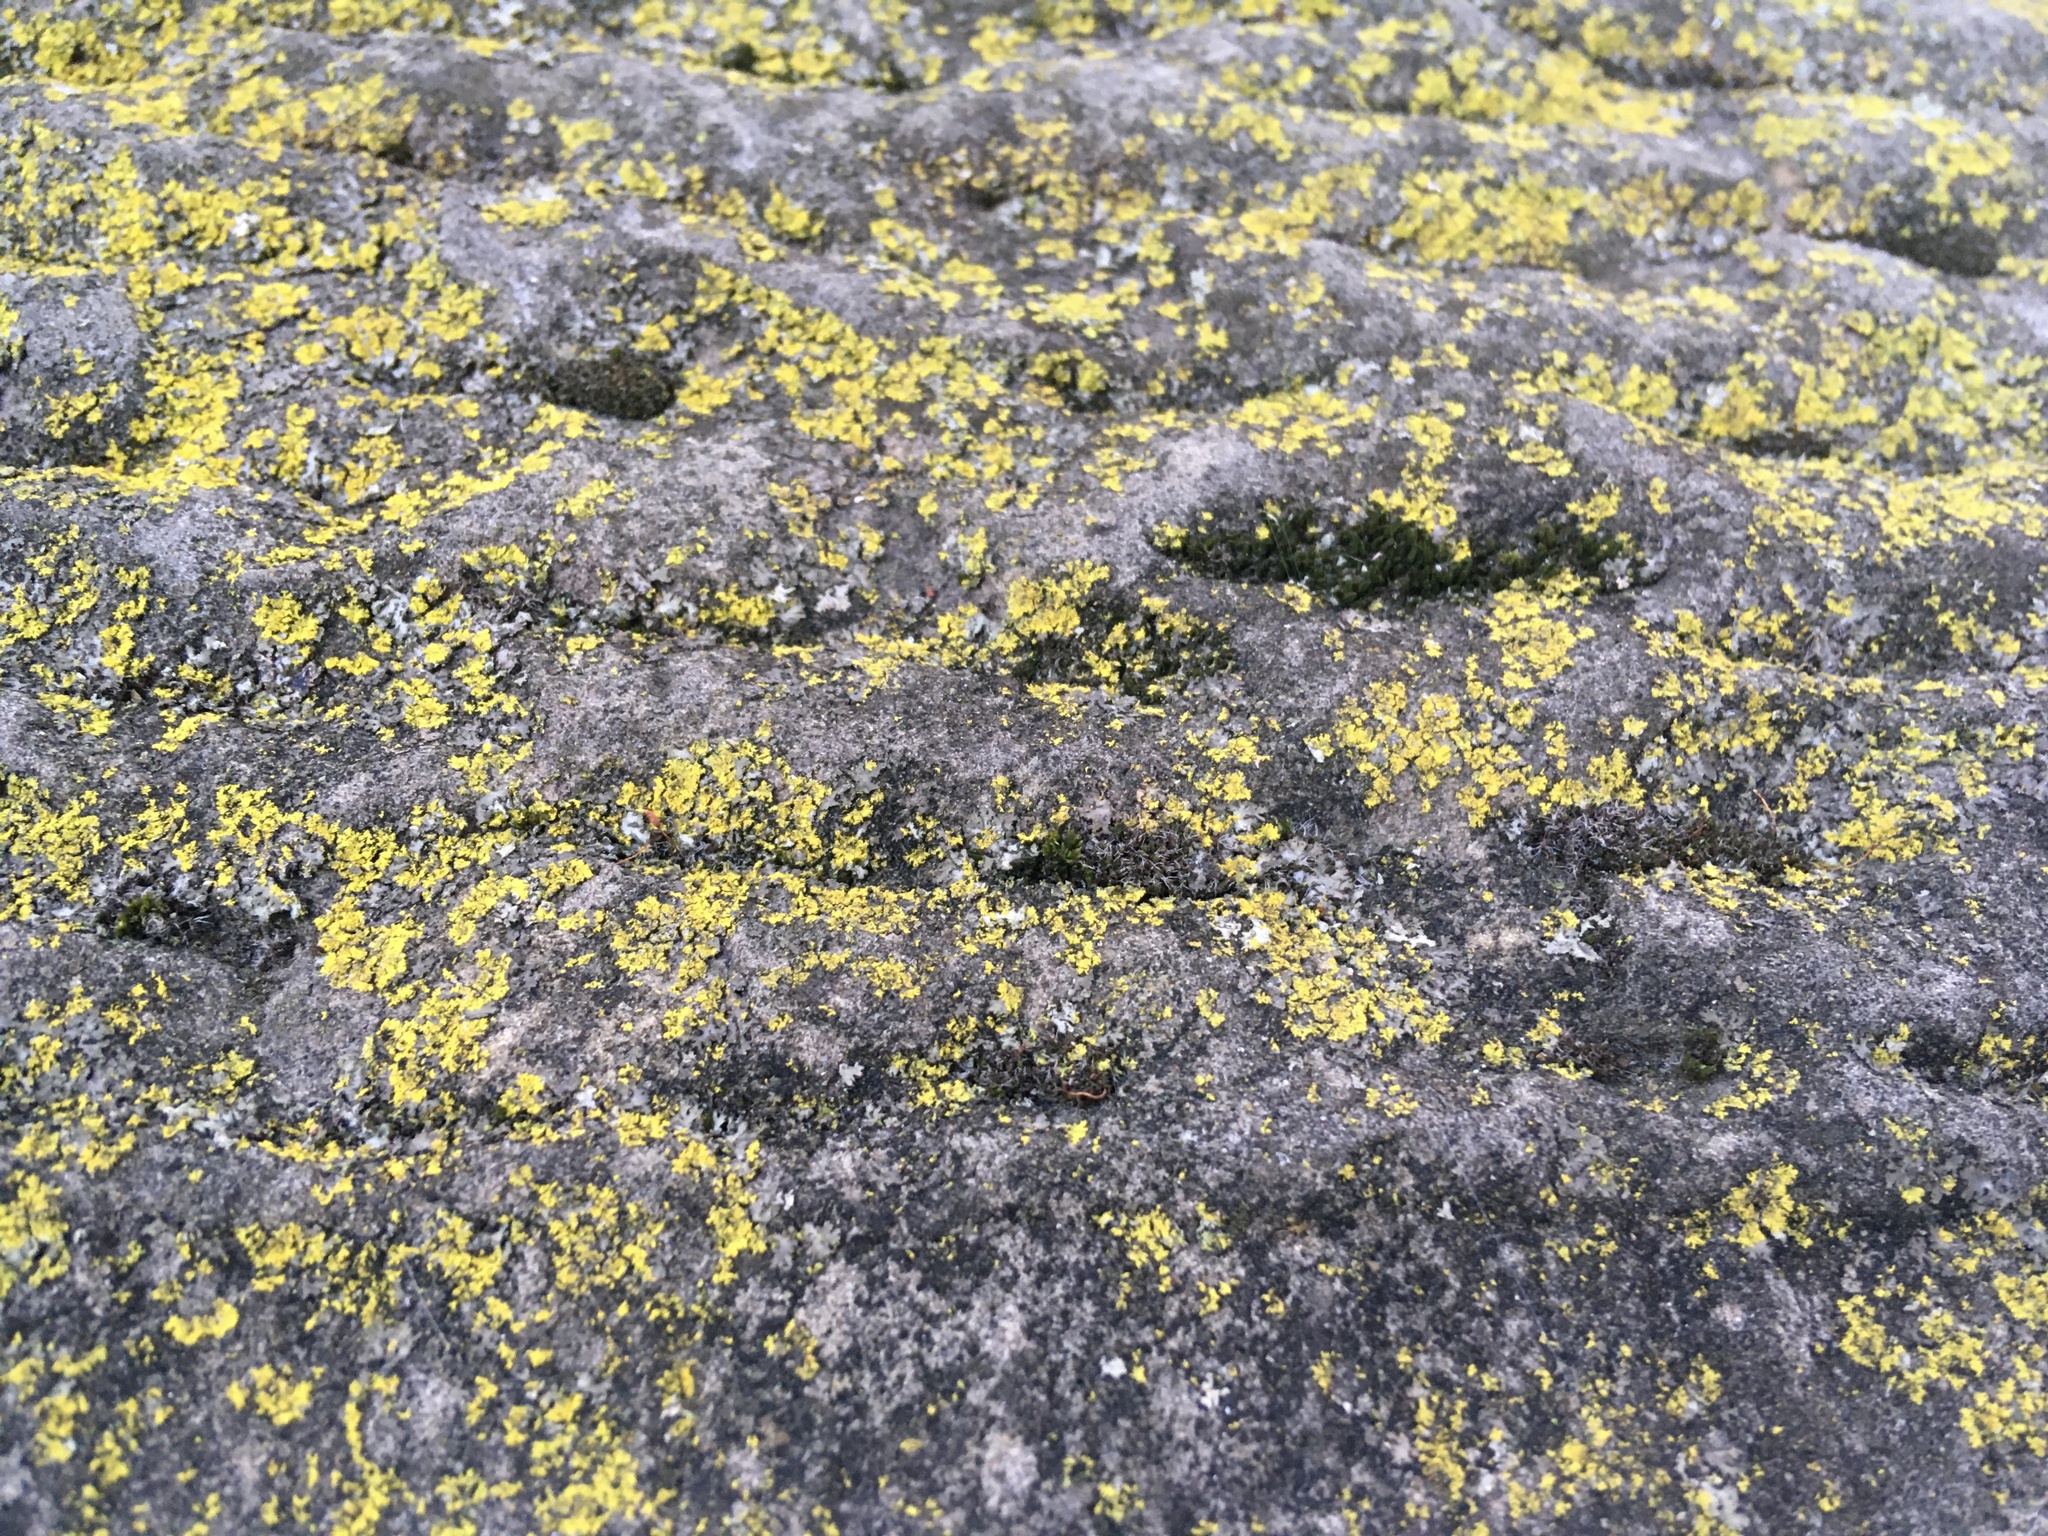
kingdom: Fungi
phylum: Ascomycota
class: Candelariomycetes
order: Candelariales
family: Candelariaceae
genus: Candelaria
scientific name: Candelaria concolor
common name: Candleflame lichen
